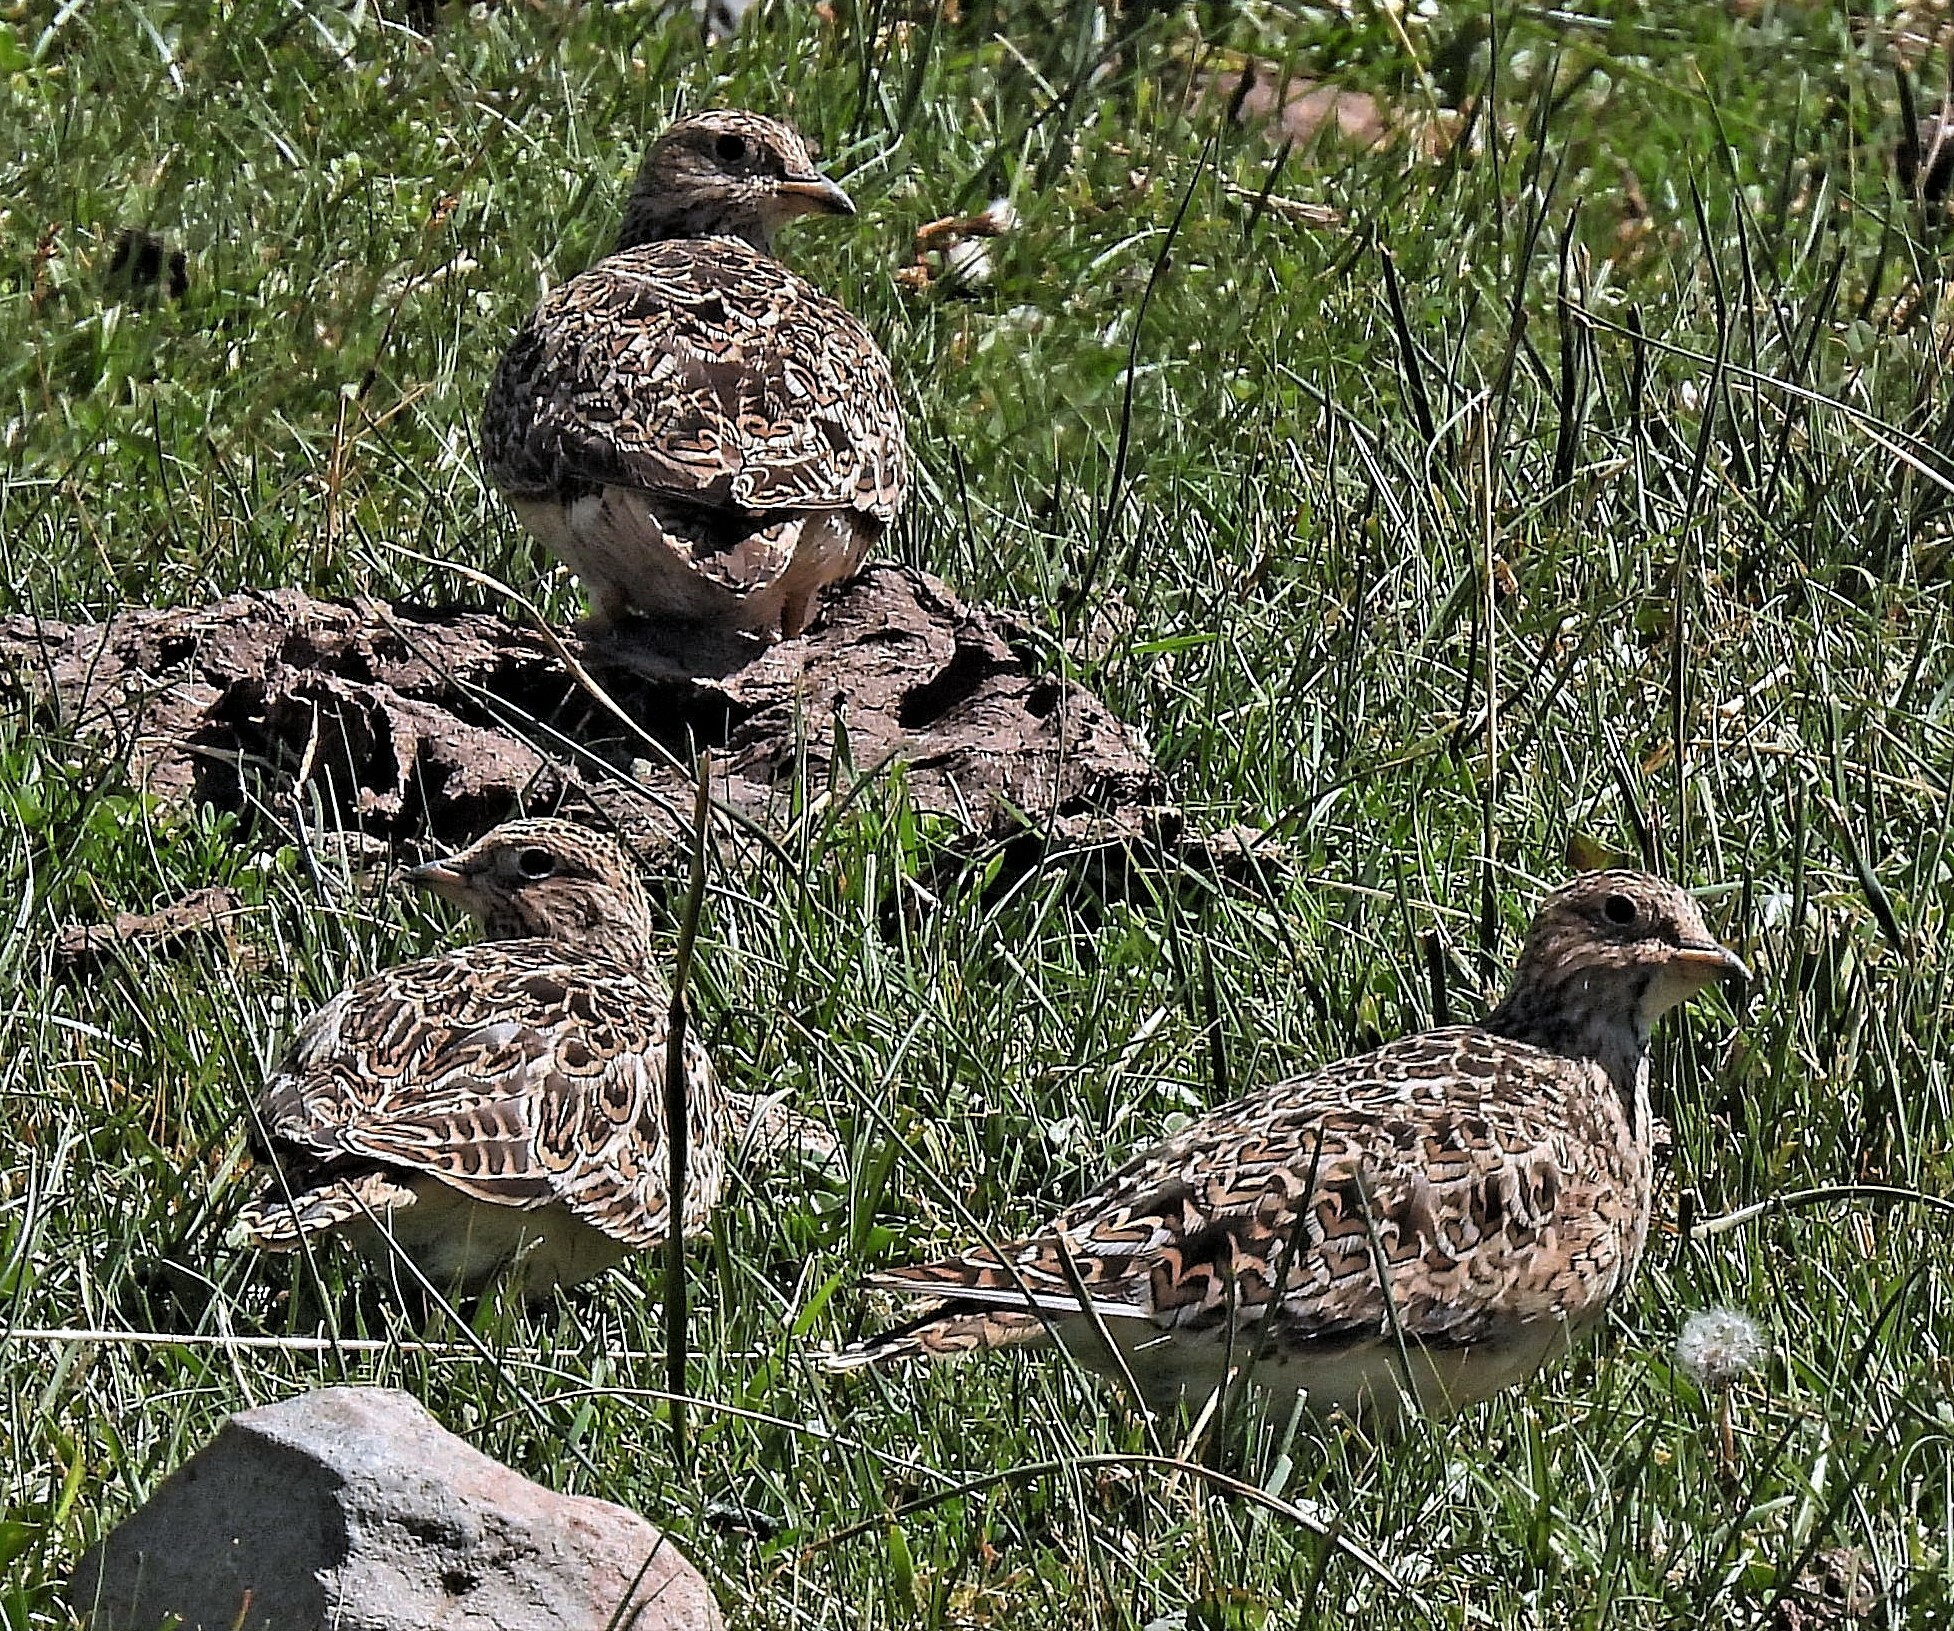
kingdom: Animalia
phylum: Chordata
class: Aves
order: Charadriiformes
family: Thinocoridae
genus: Thinocorus
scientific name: Thinocorus orbignyianus
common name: Grey-breasted seedsnipe
